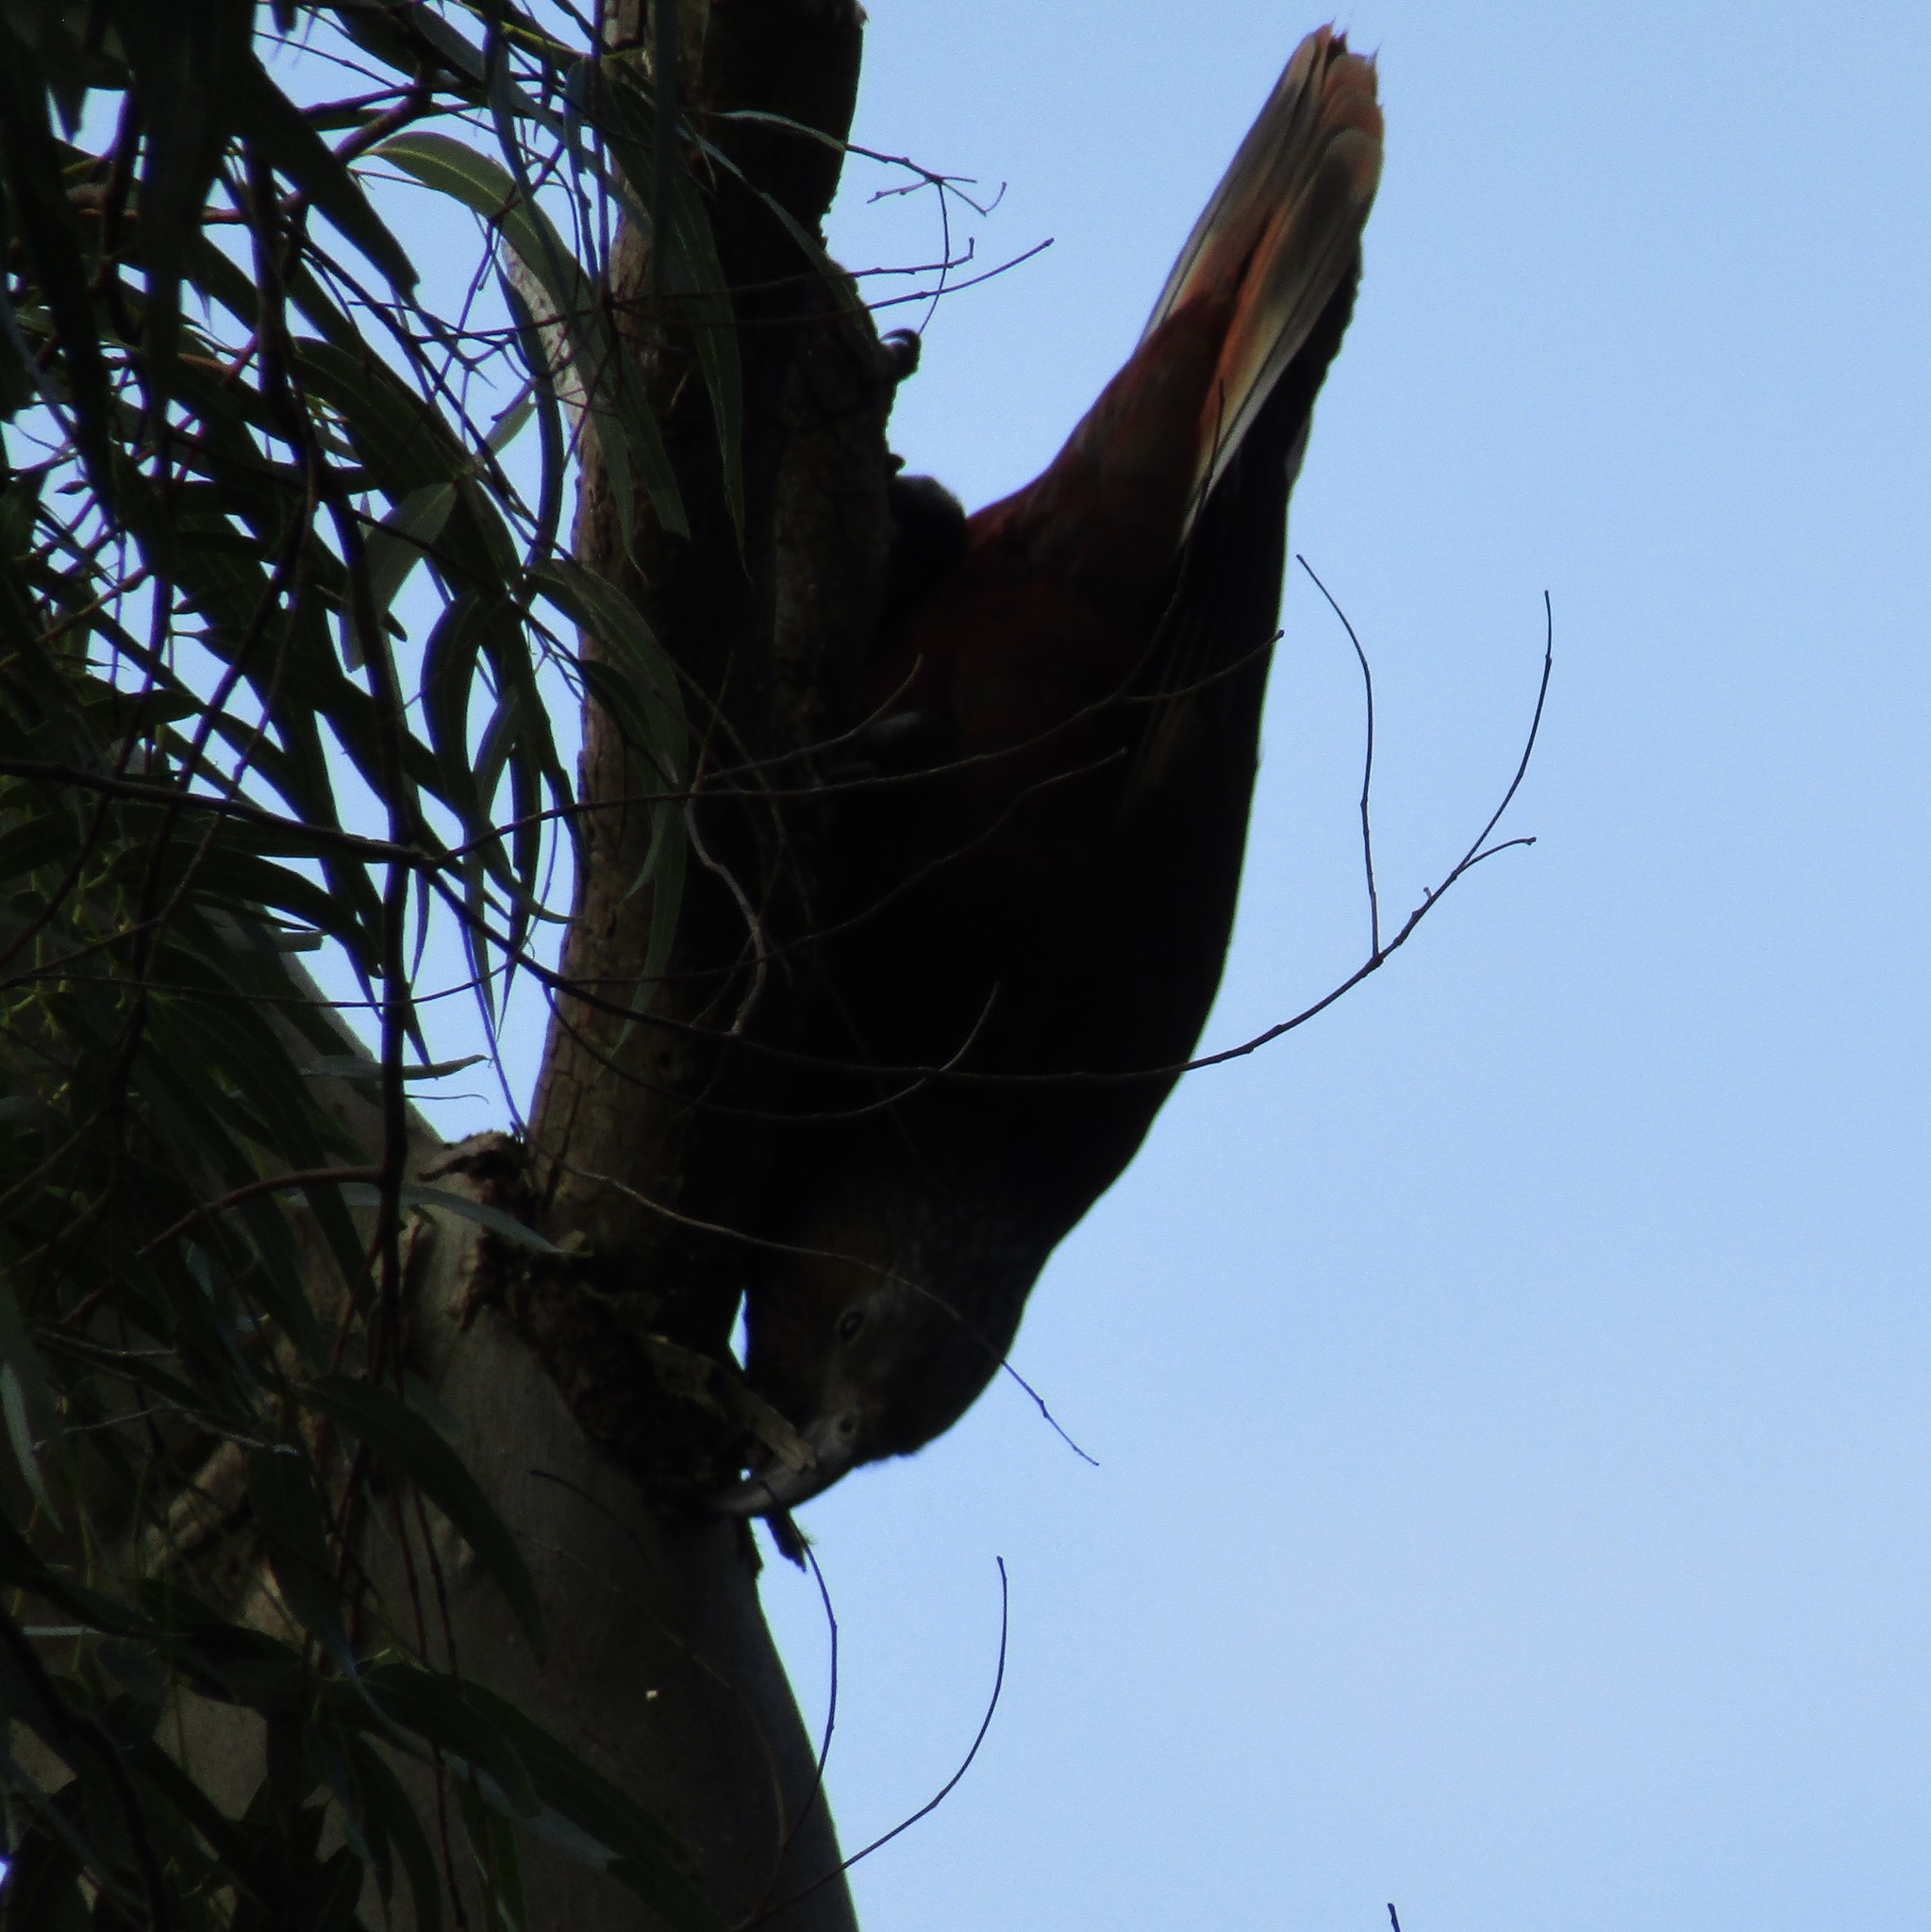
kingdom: Animalia
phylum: Chordata
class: Aves
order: Psittaciformes
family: Psittacidae
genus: Nestor
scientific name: Nestor meridionalis
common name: New zealand kaka
